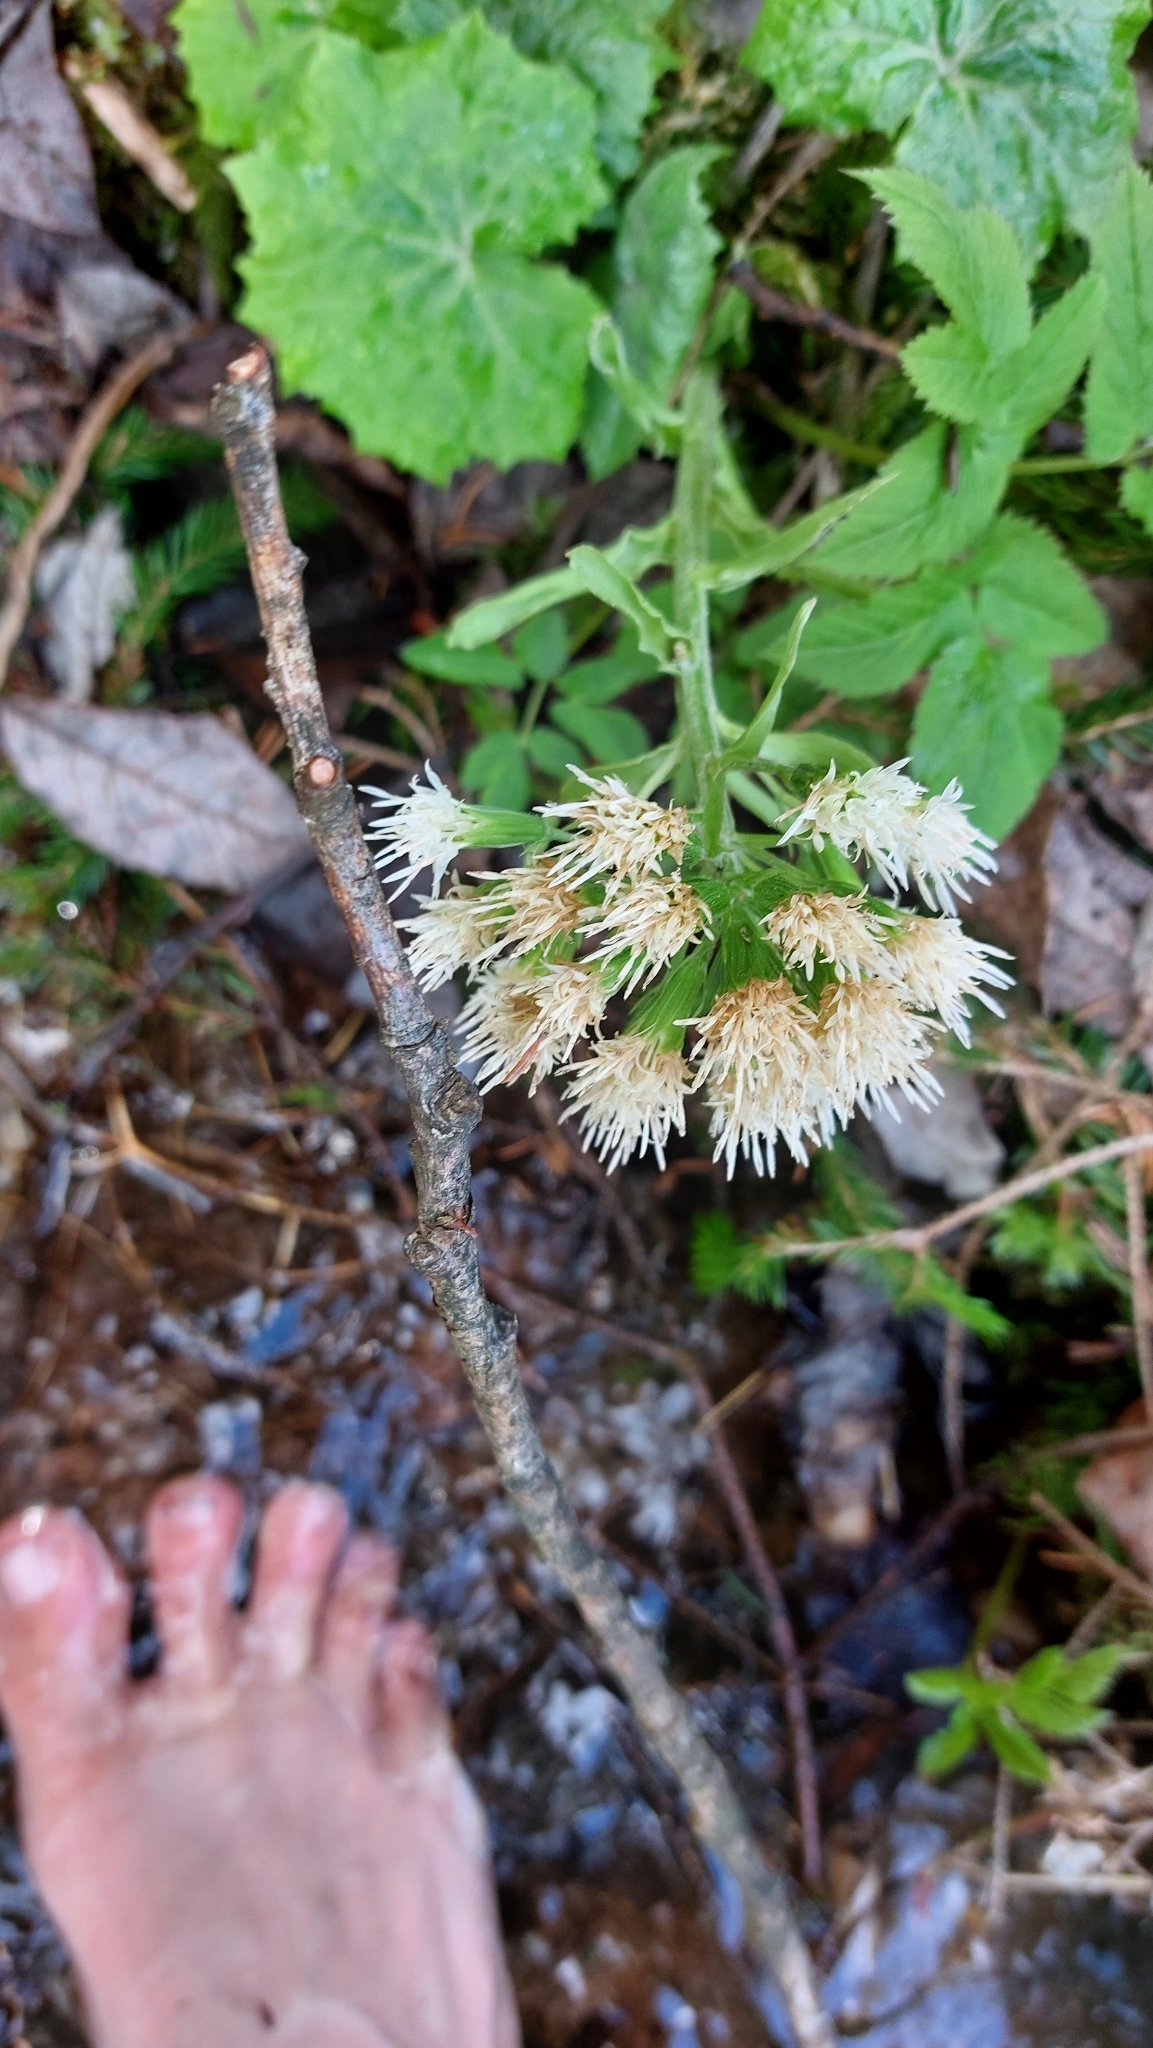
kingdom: Plantae
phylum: Tracheophyta
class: Magnoliopsida
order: Asterales
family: Asteraceae
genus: Petasites
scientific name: Petasites albus
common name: White butterbur
